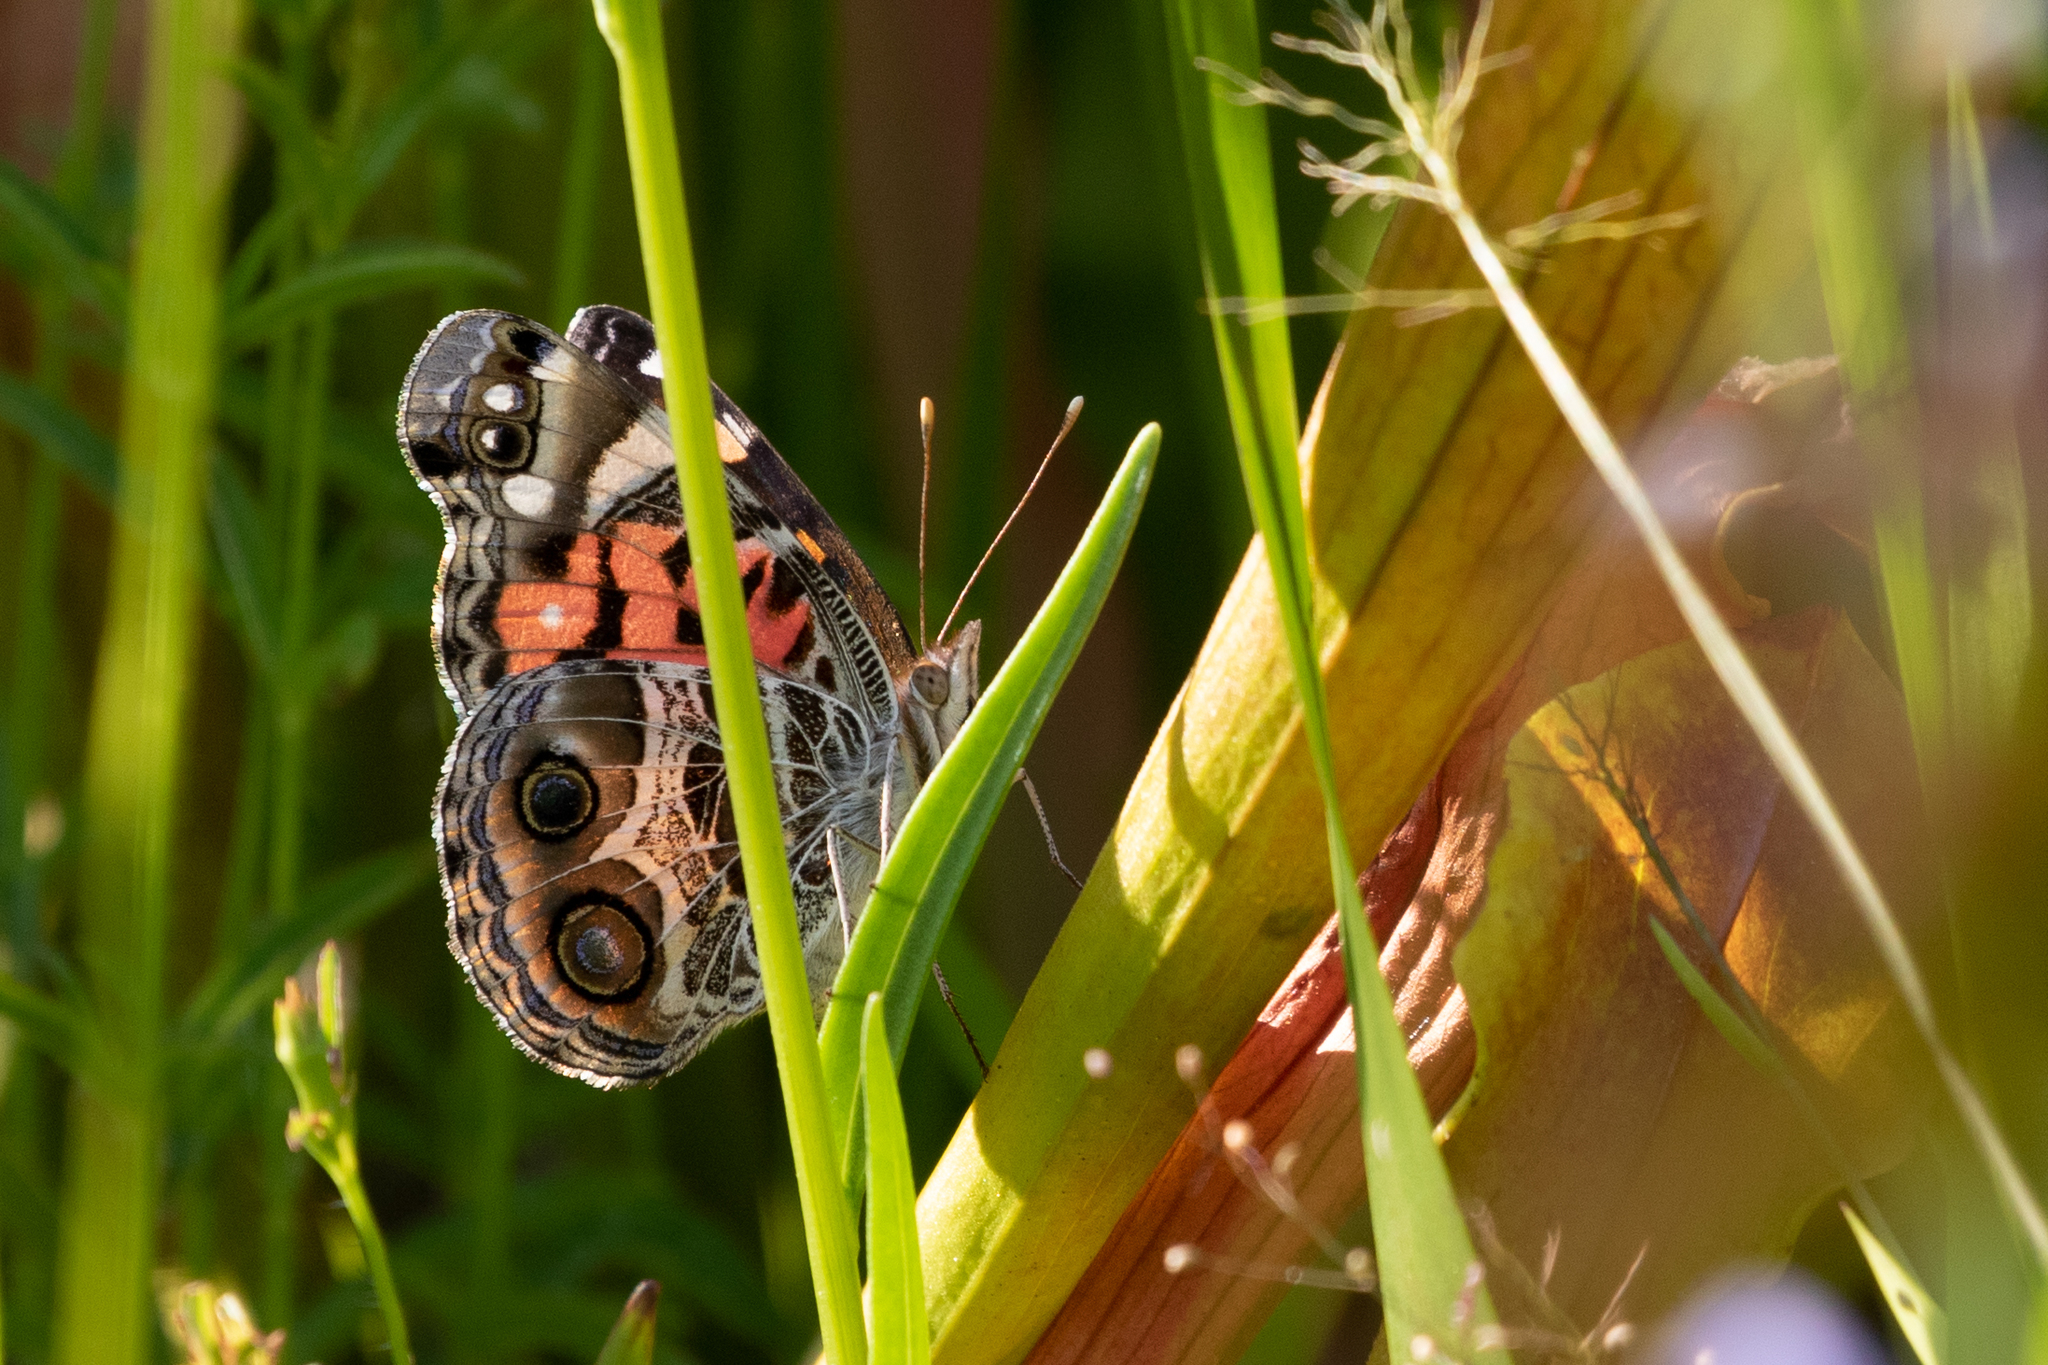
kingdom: Animalia
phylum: Arthropoda
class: Insecta
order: Lepidoptera
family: Nymphalidae
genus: Vanessa
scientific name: Vanessa virginiensis
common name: American lady
